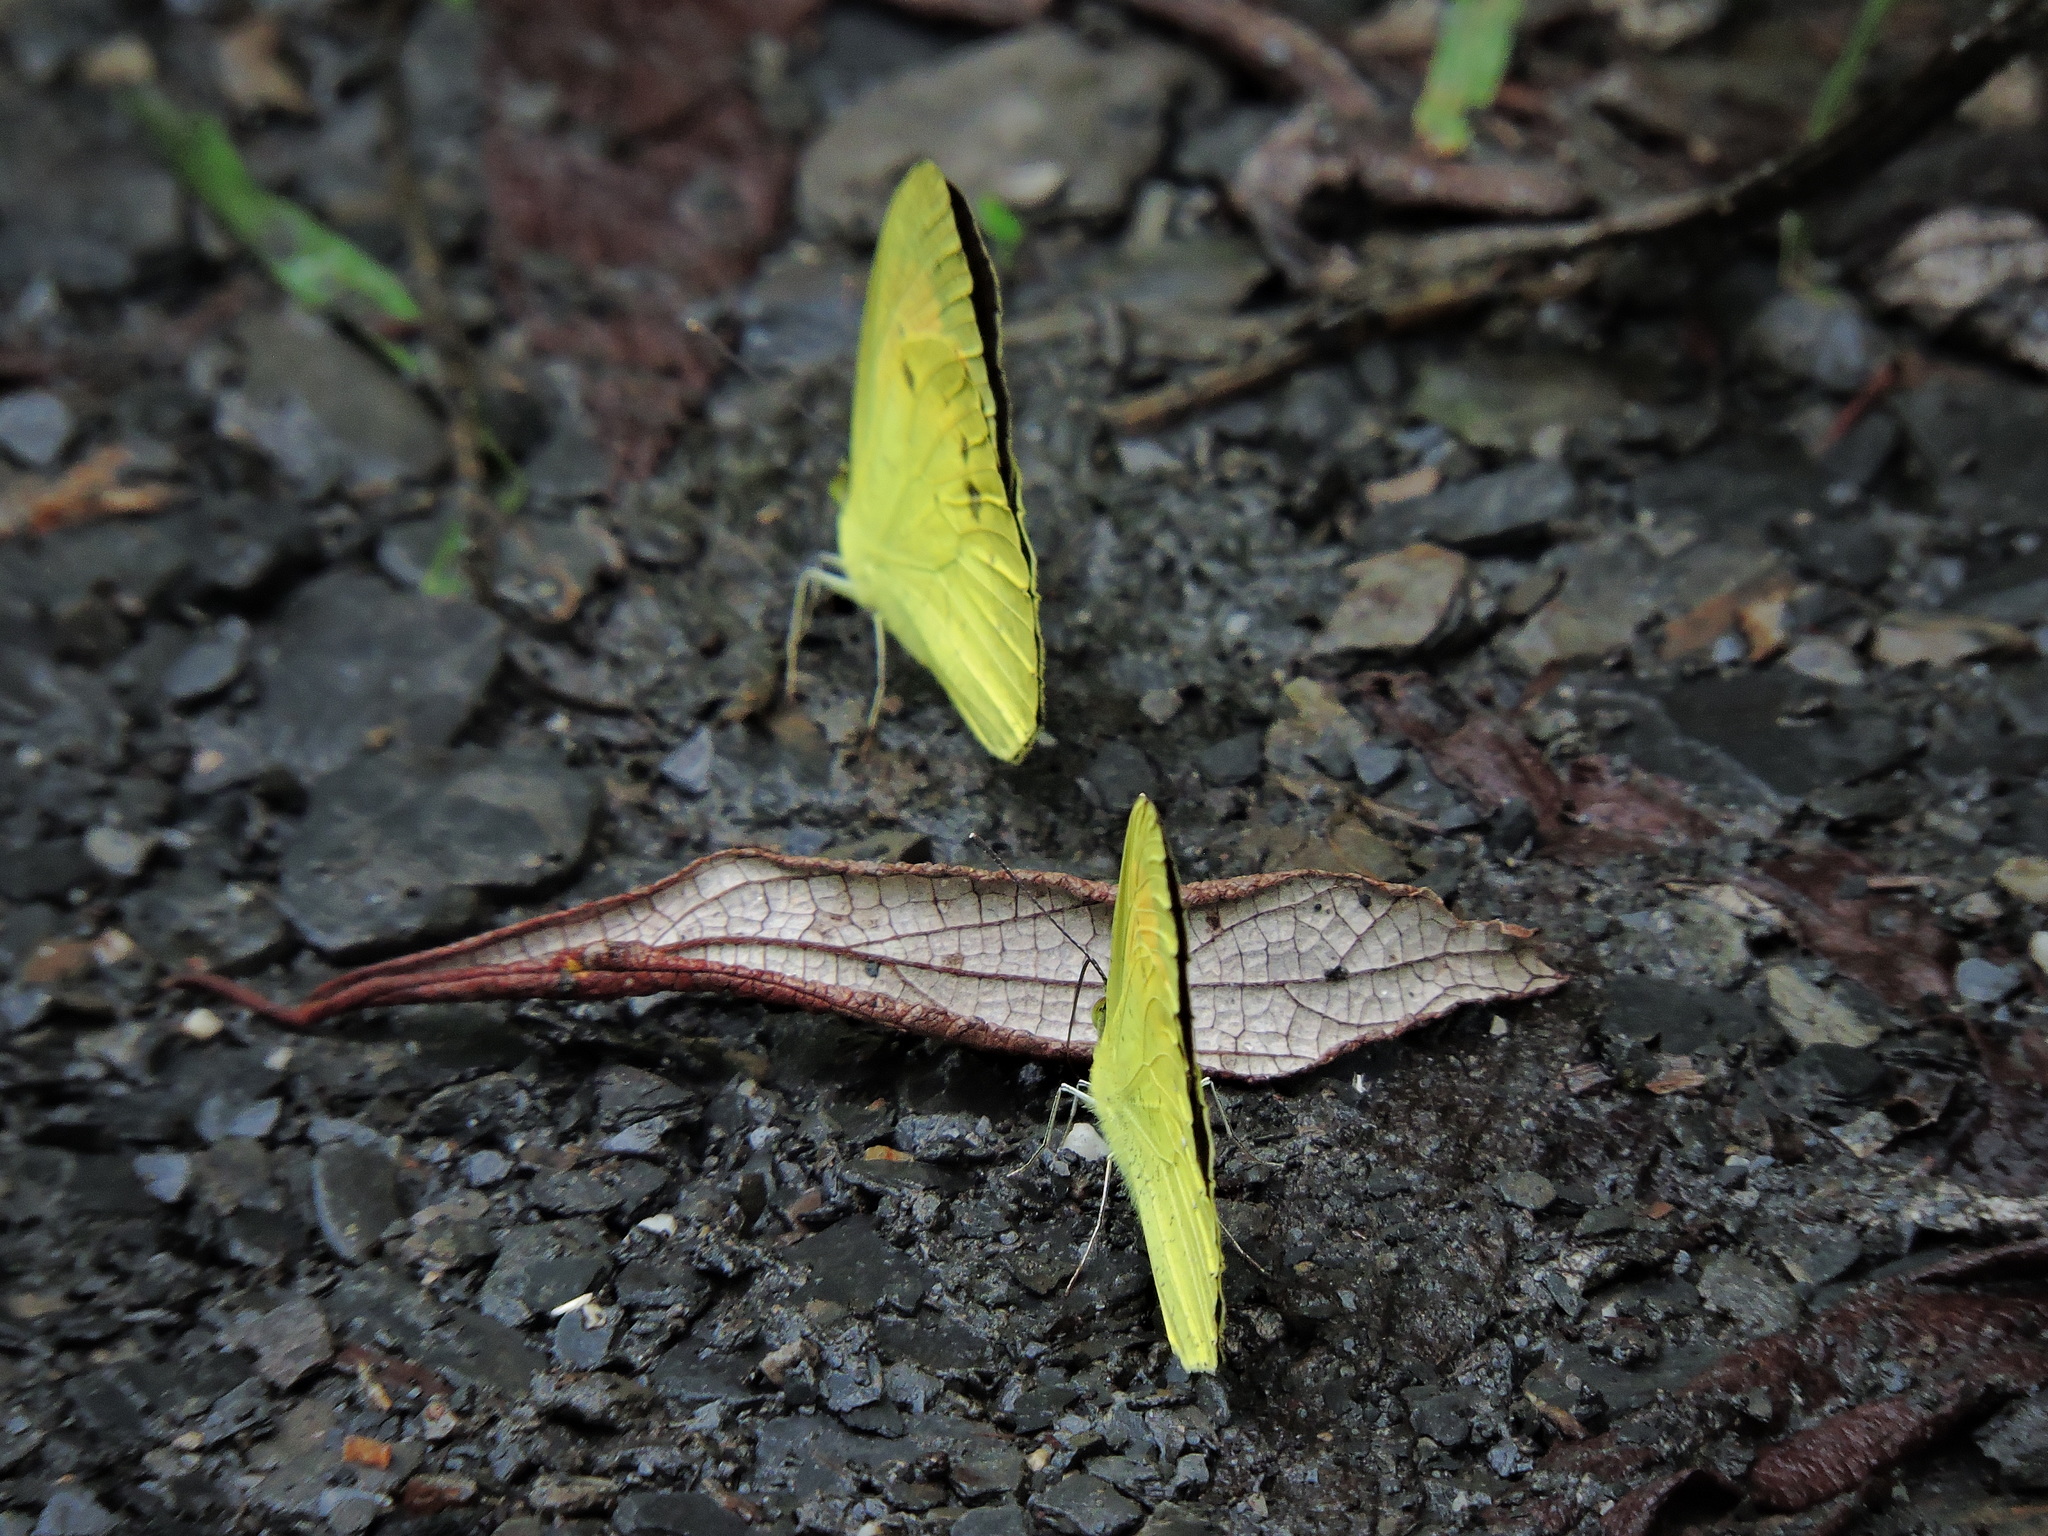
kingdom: Animalia
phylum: Arthropoda
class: Insecta
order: Lepidoptera
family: Pieridae
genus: Ixias
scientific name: Ixias pyrene
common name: Yellow orange tip
